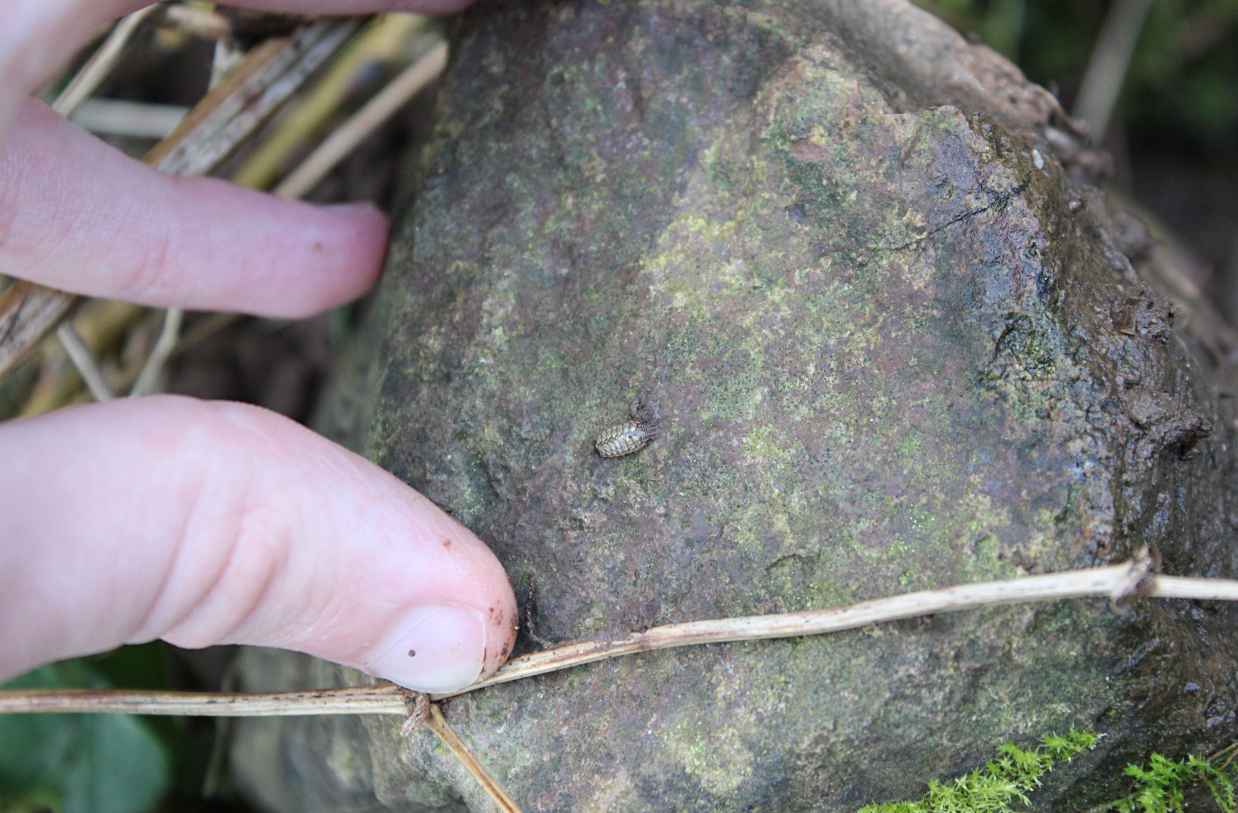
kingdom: Animalia
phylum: Arthropoda
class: Malacostraca
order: Isopoda
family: Philosciidae
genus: Philoscia
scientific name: Philoscia muscorum
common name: Common striped woodlouse
